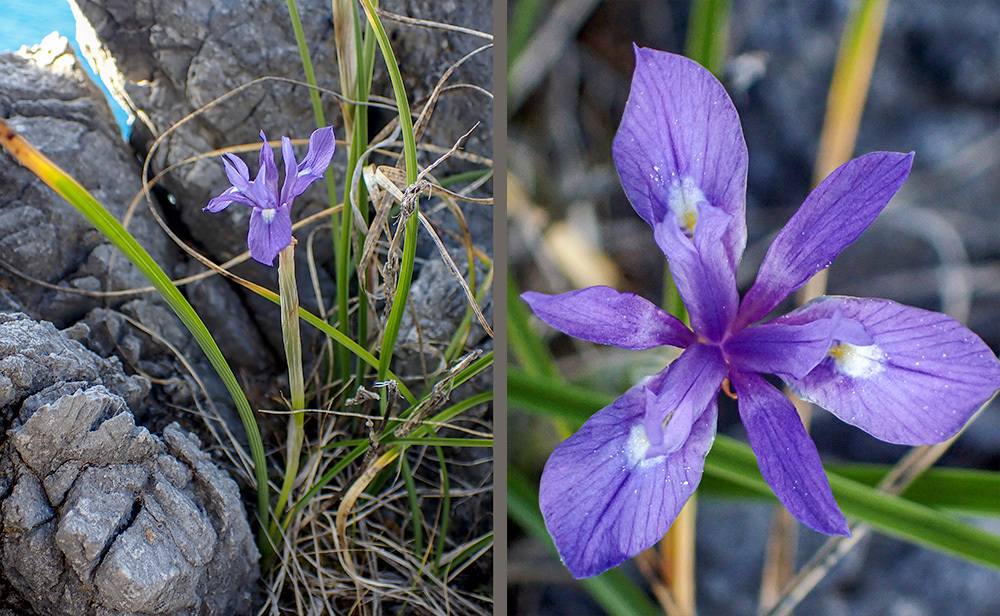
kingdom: Plantae
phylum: Tracheophyta
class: Liliopsida
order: Asparagales
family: Iridaceae
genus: Moraea
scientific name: Moraea sisyrinchium
